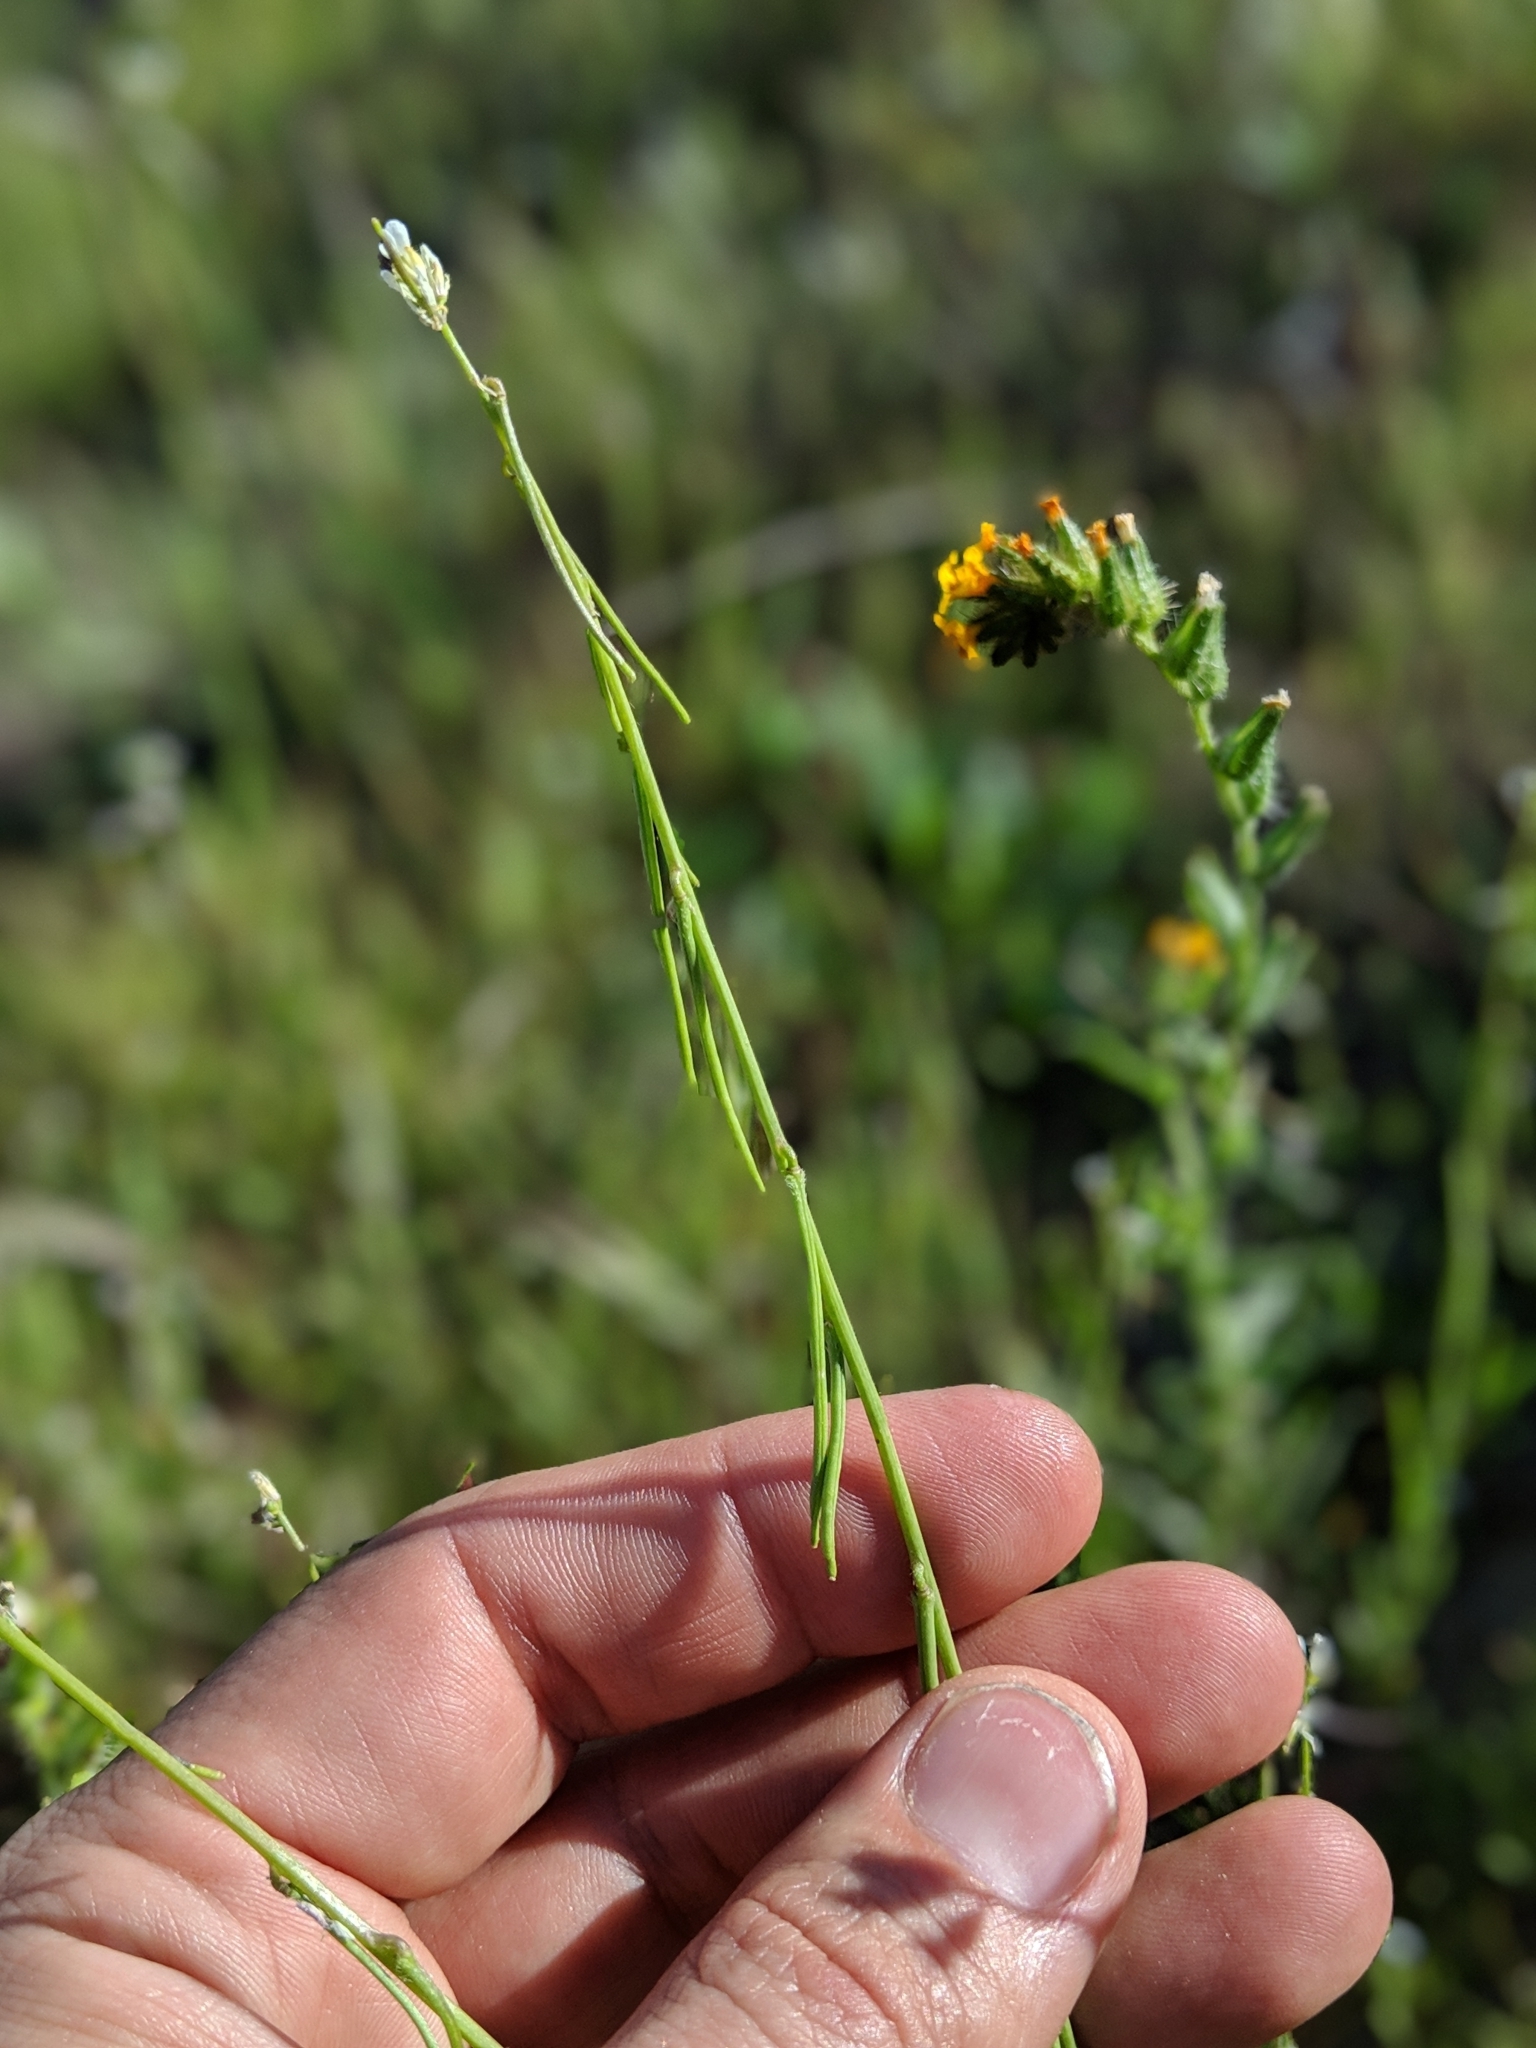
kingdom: Plantae
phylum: Tracheophyta
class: Magnoliopsida
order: Brassicales
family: Brassicaceae
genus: Streptanthus
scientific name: Streptanthus lasiophyllus
